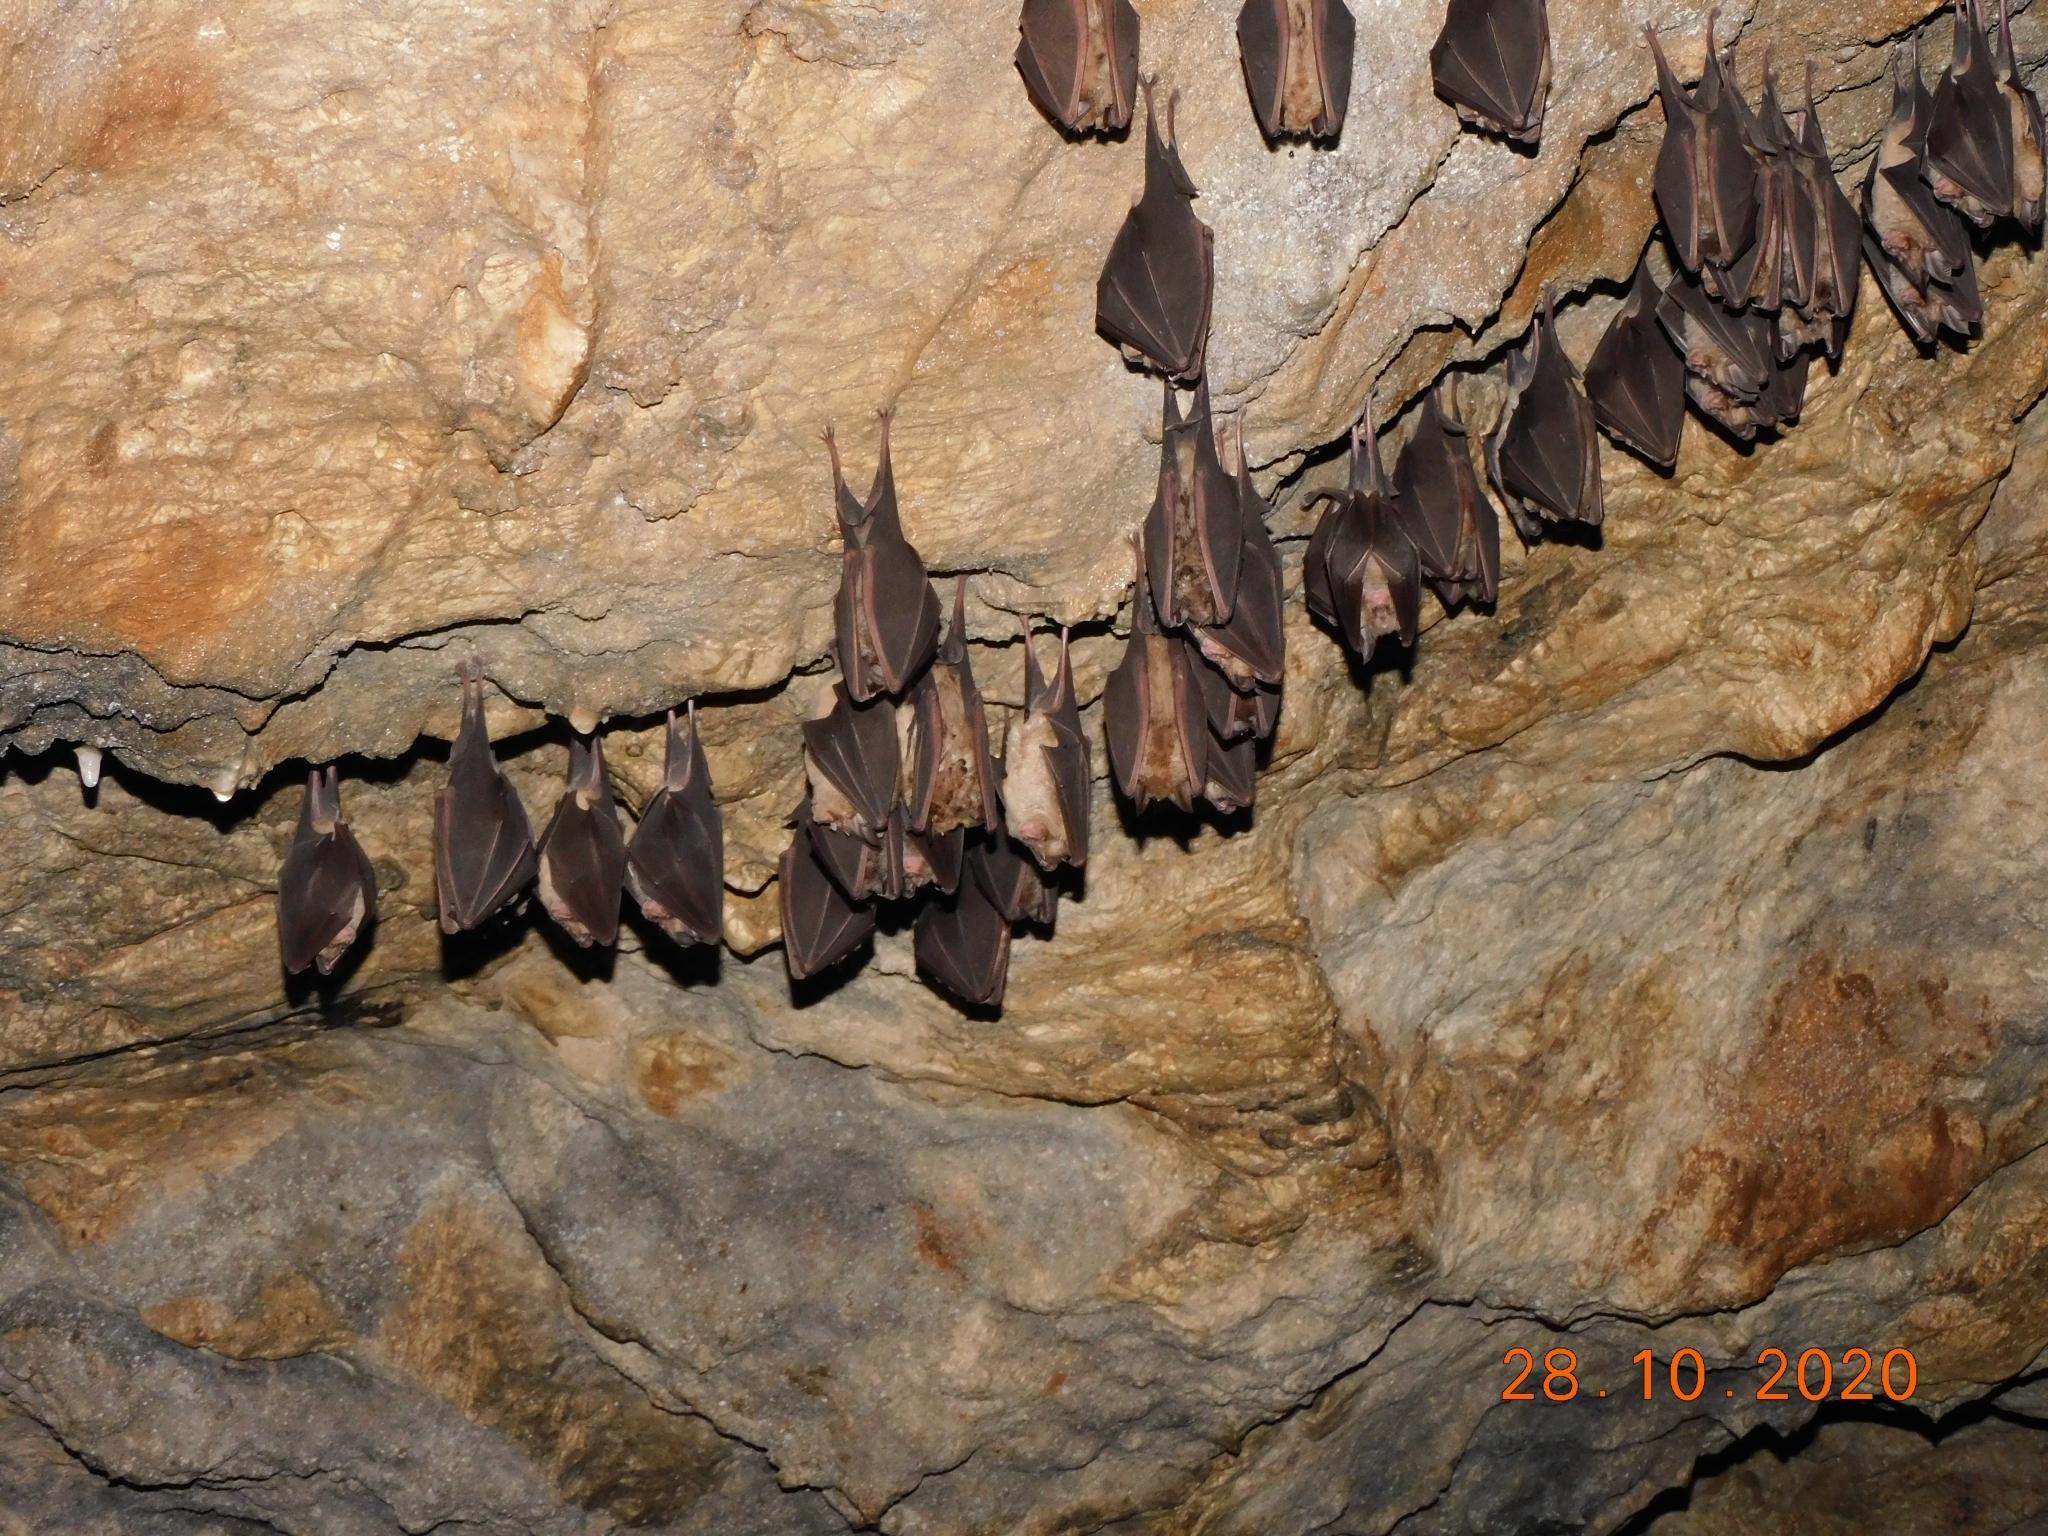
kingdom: Animalia
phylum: Chordata
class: Mammalia
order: Chiroptera
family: Rhinolophidae
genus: Rhinolophus
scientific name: Rhinolophus ferrumequinum
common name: Greater horseshoe bat
